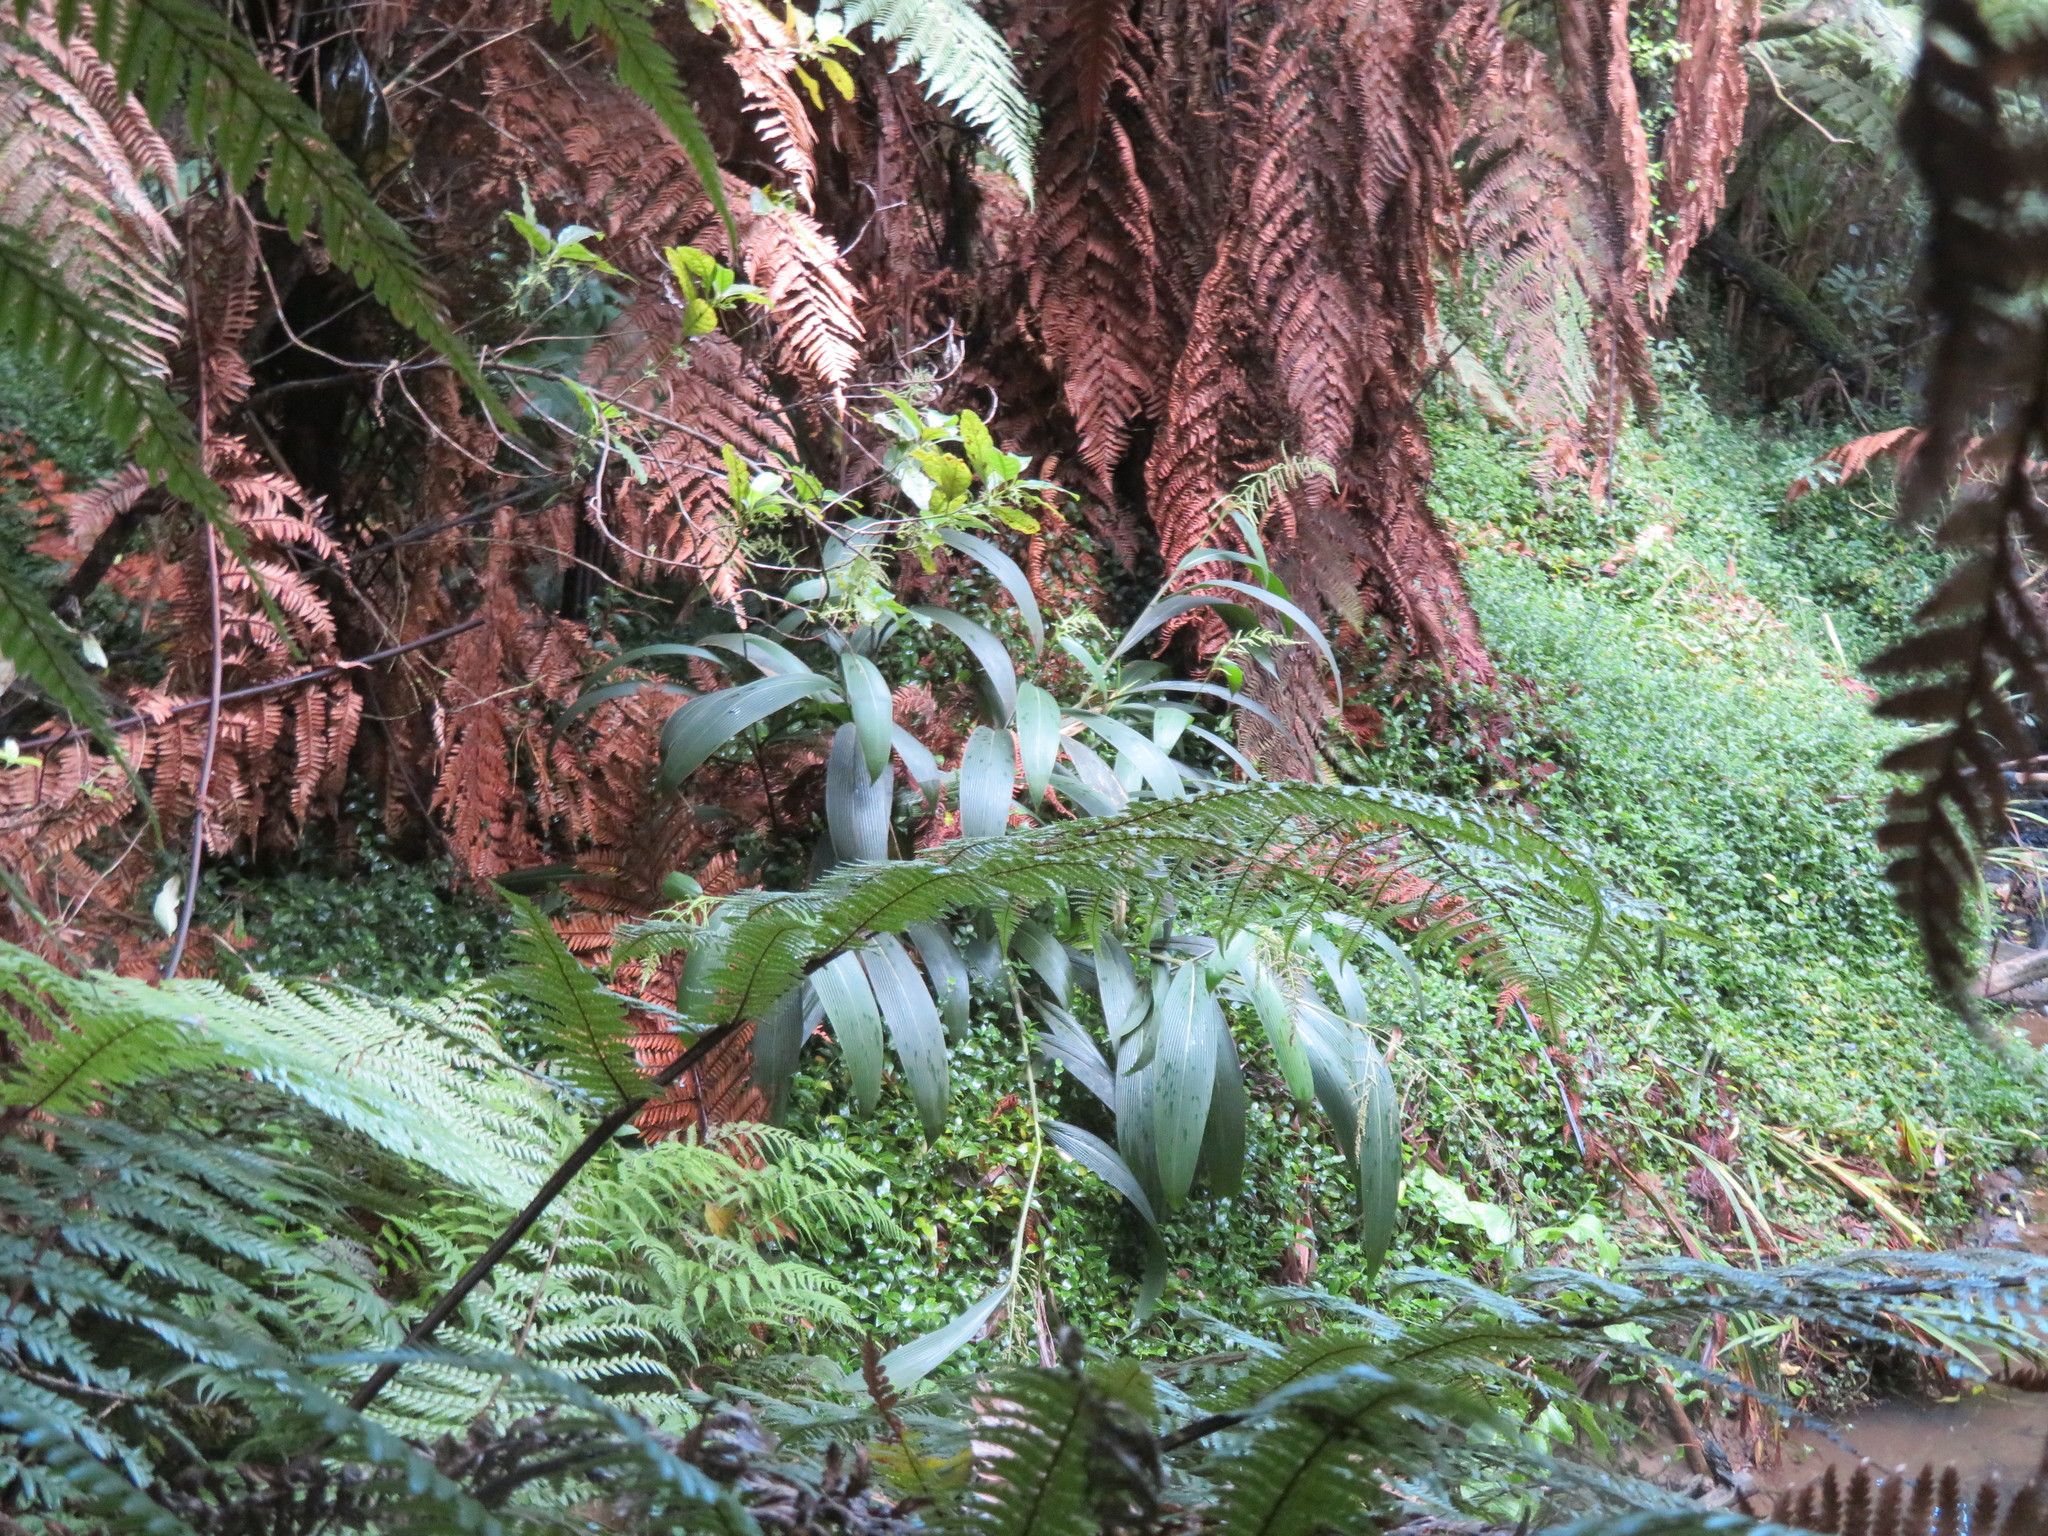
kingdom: Plantae
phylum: Tracheophyta
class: Polypodiopsida
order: Cyatheales
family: Dicksoniaceae
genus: Dicksonia
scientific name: Dicksonia squarrosa
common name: Hard treefern
